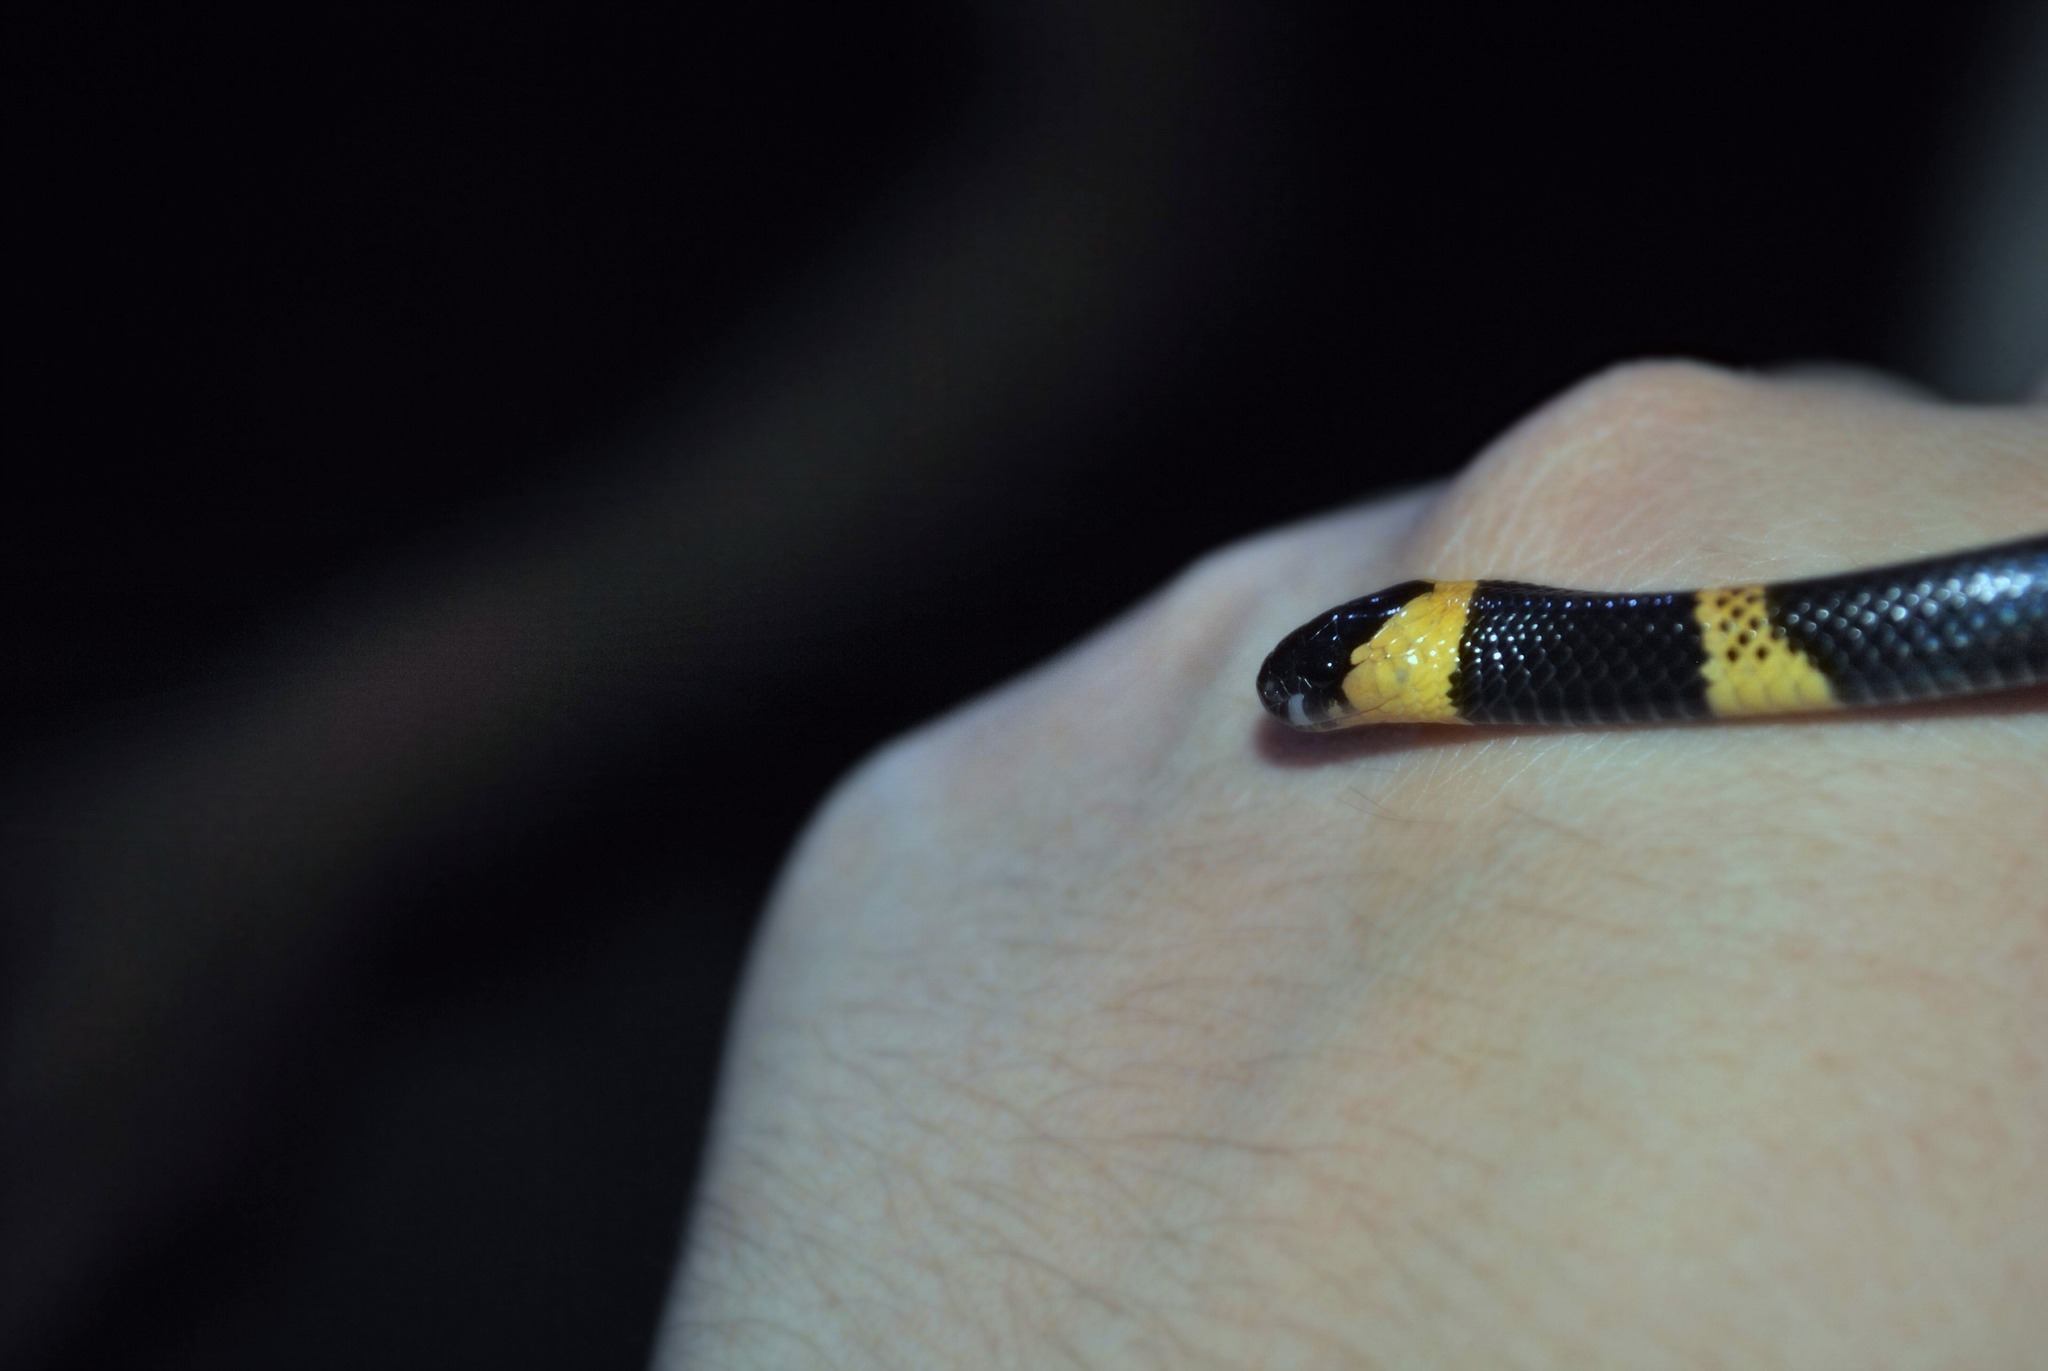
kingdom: Animalia
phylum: Chordata
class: Squamata
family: Colubridae
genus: Geophis
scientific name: Geophis
